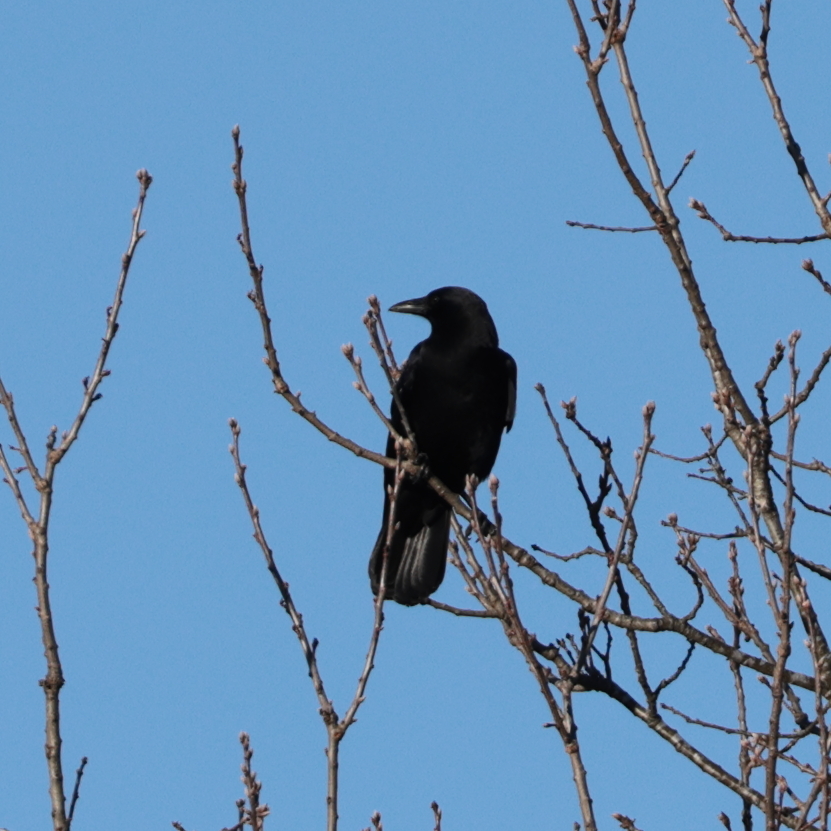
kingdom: Animalia
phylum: Chordata
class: Aves
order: Passeriformes
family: Corvidae
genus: Corvus
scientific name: Corvus
